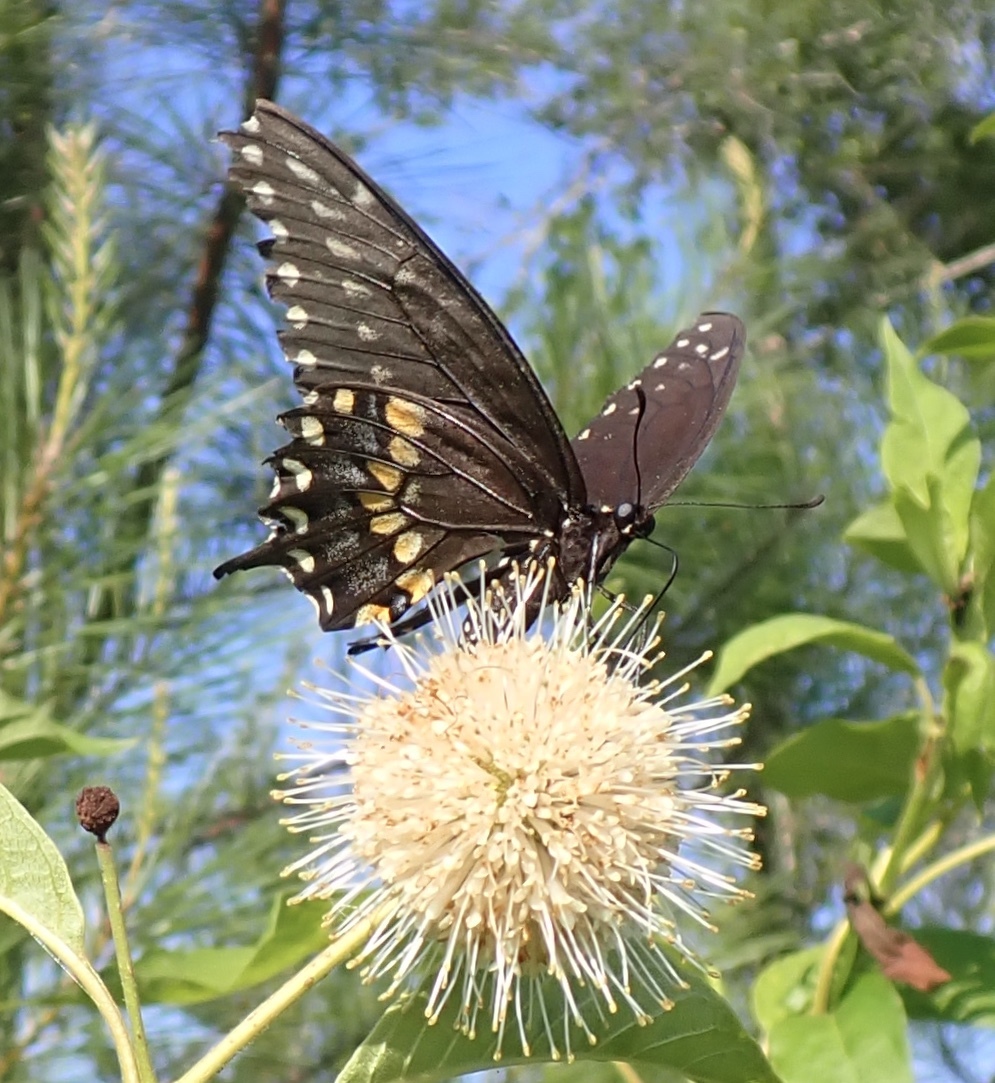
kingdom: Animalia
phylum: Arthropoda
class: Insecta
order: Lepidoptera
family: Papilionidae
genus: Papilio
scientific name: Papilio polyxenes
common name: Black swallowtail
